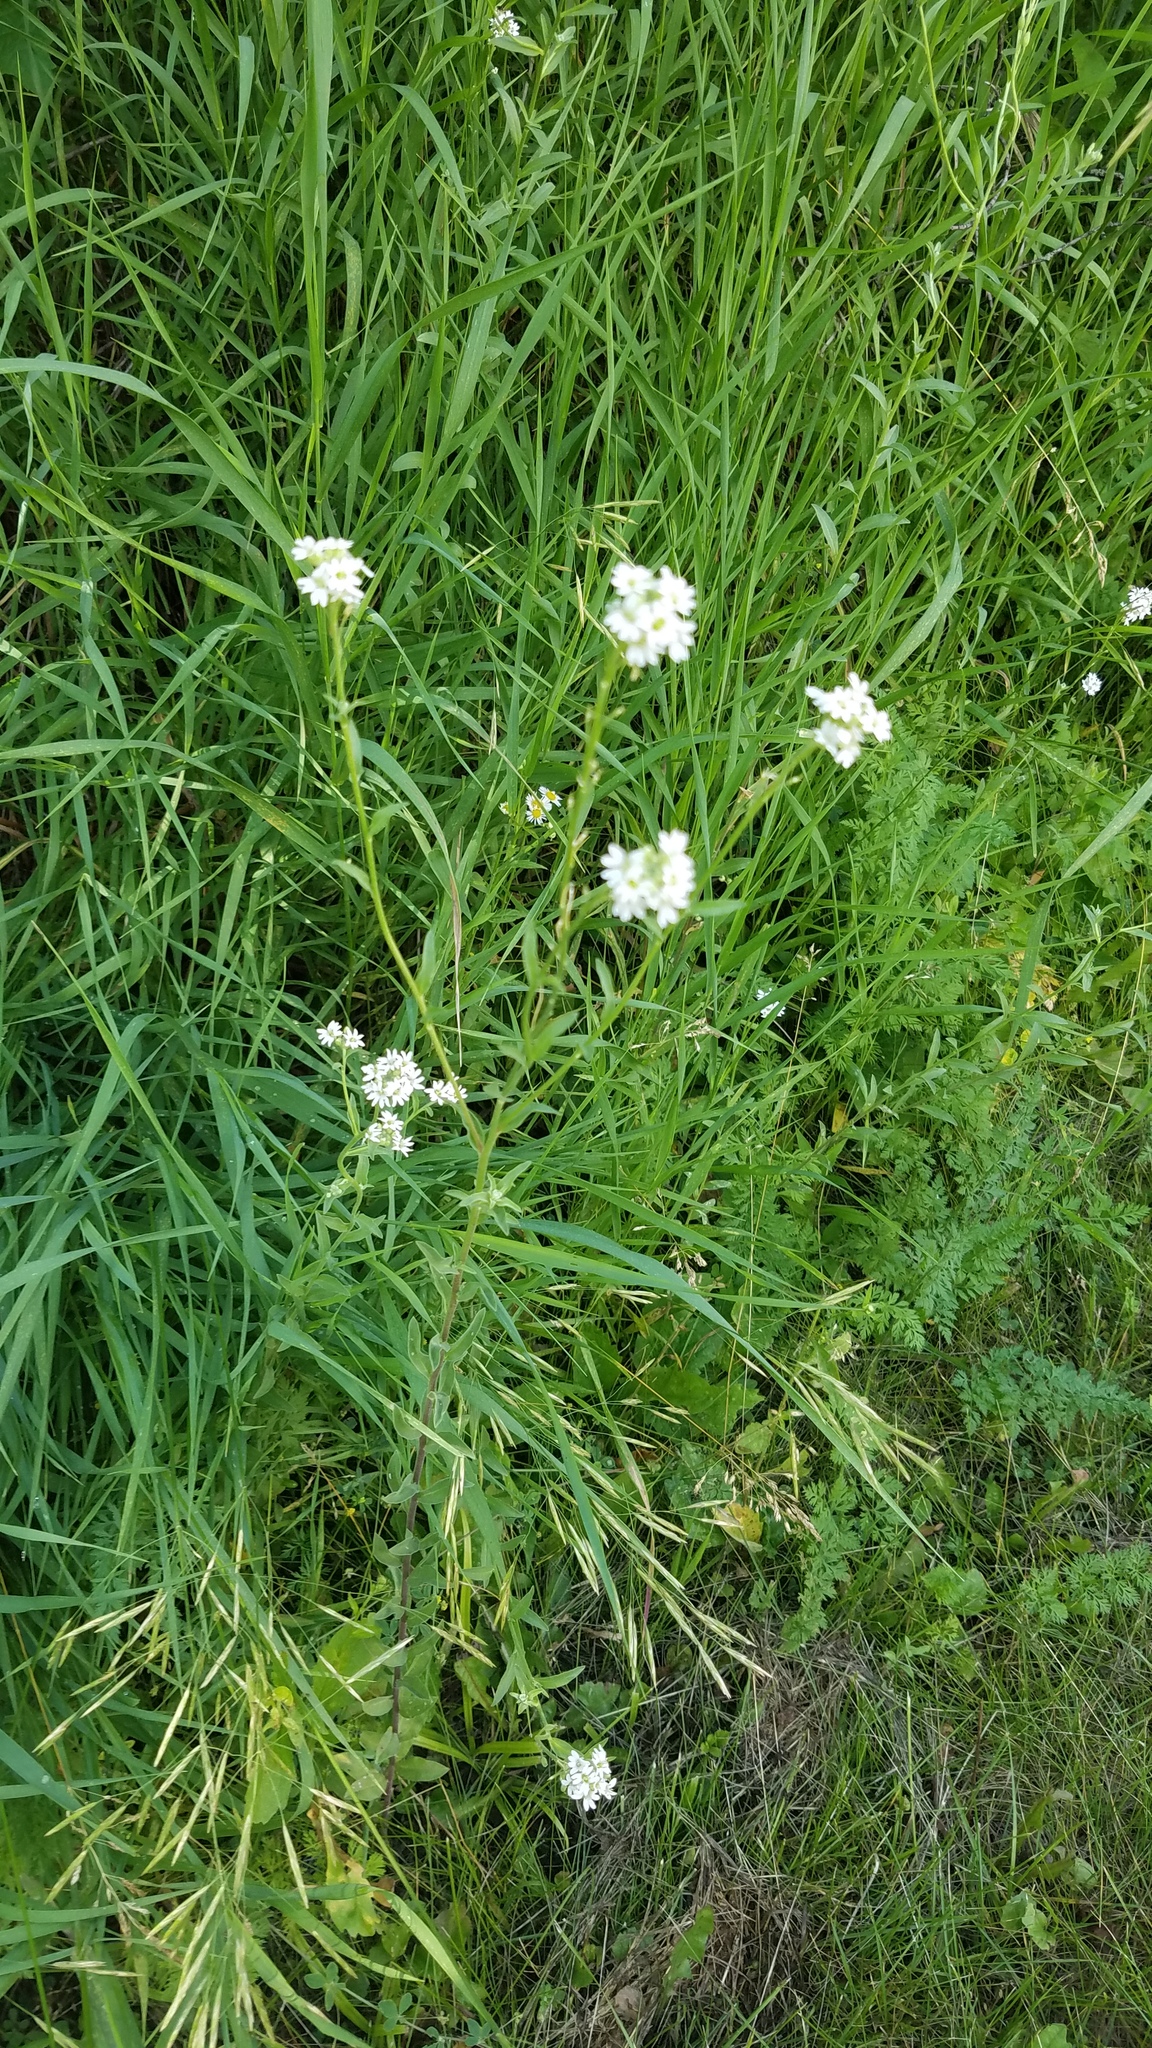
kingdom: Plantae
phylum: Tracheophyta
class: Magnoliopsida
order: Brassicales
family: Brassicaceae
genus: Berteroa
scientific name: Berteroa incana
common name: Hoary alison
